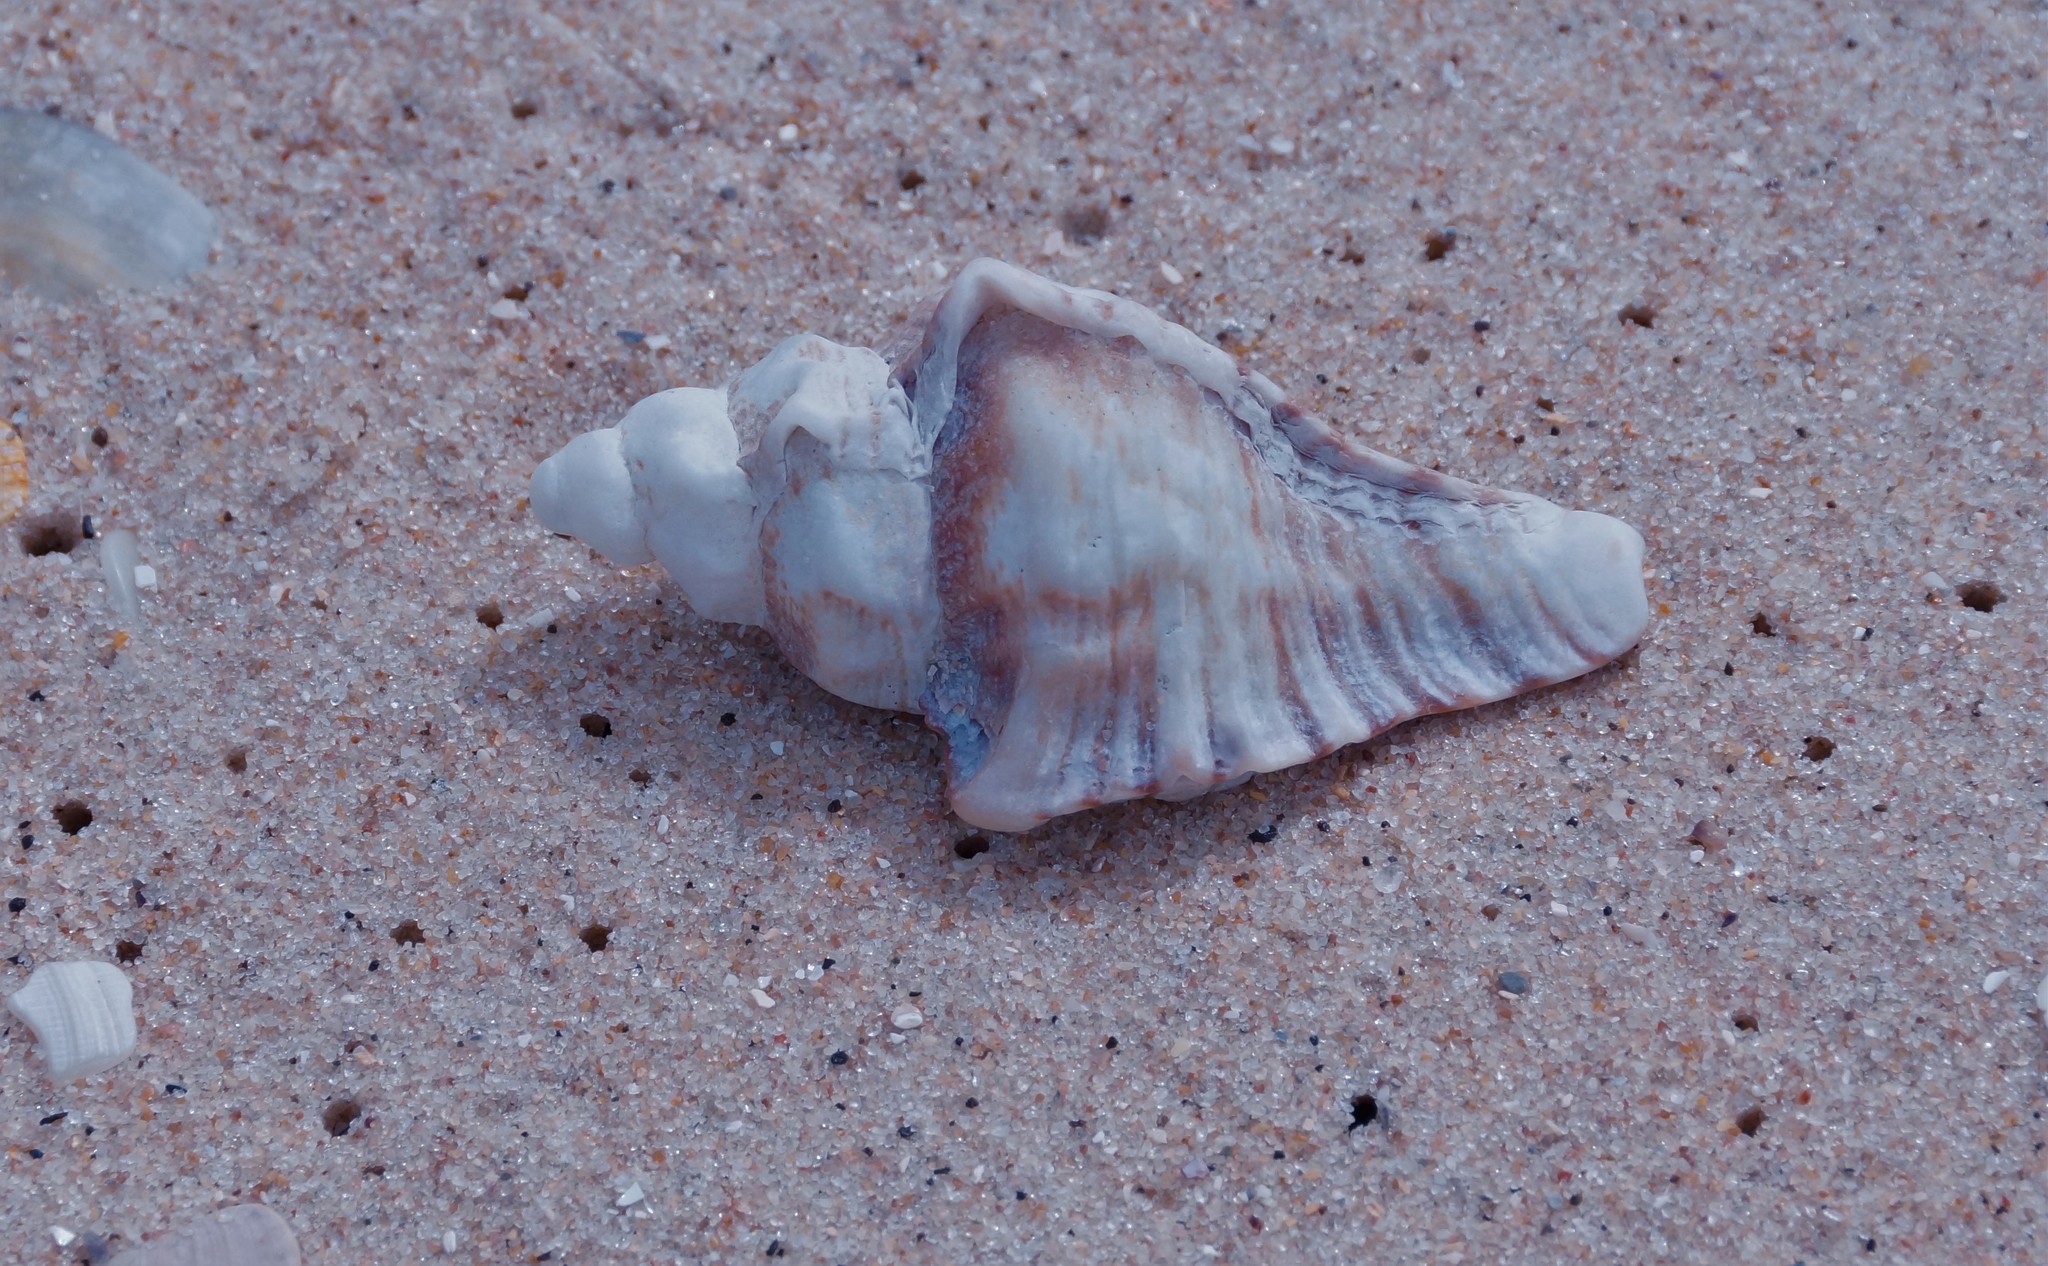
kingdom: Animalia
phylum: Mollusca
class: Gastropoda
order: Neogastropoda
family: Muricidae
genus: Pterochelus
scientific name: Pterochelus triformis
